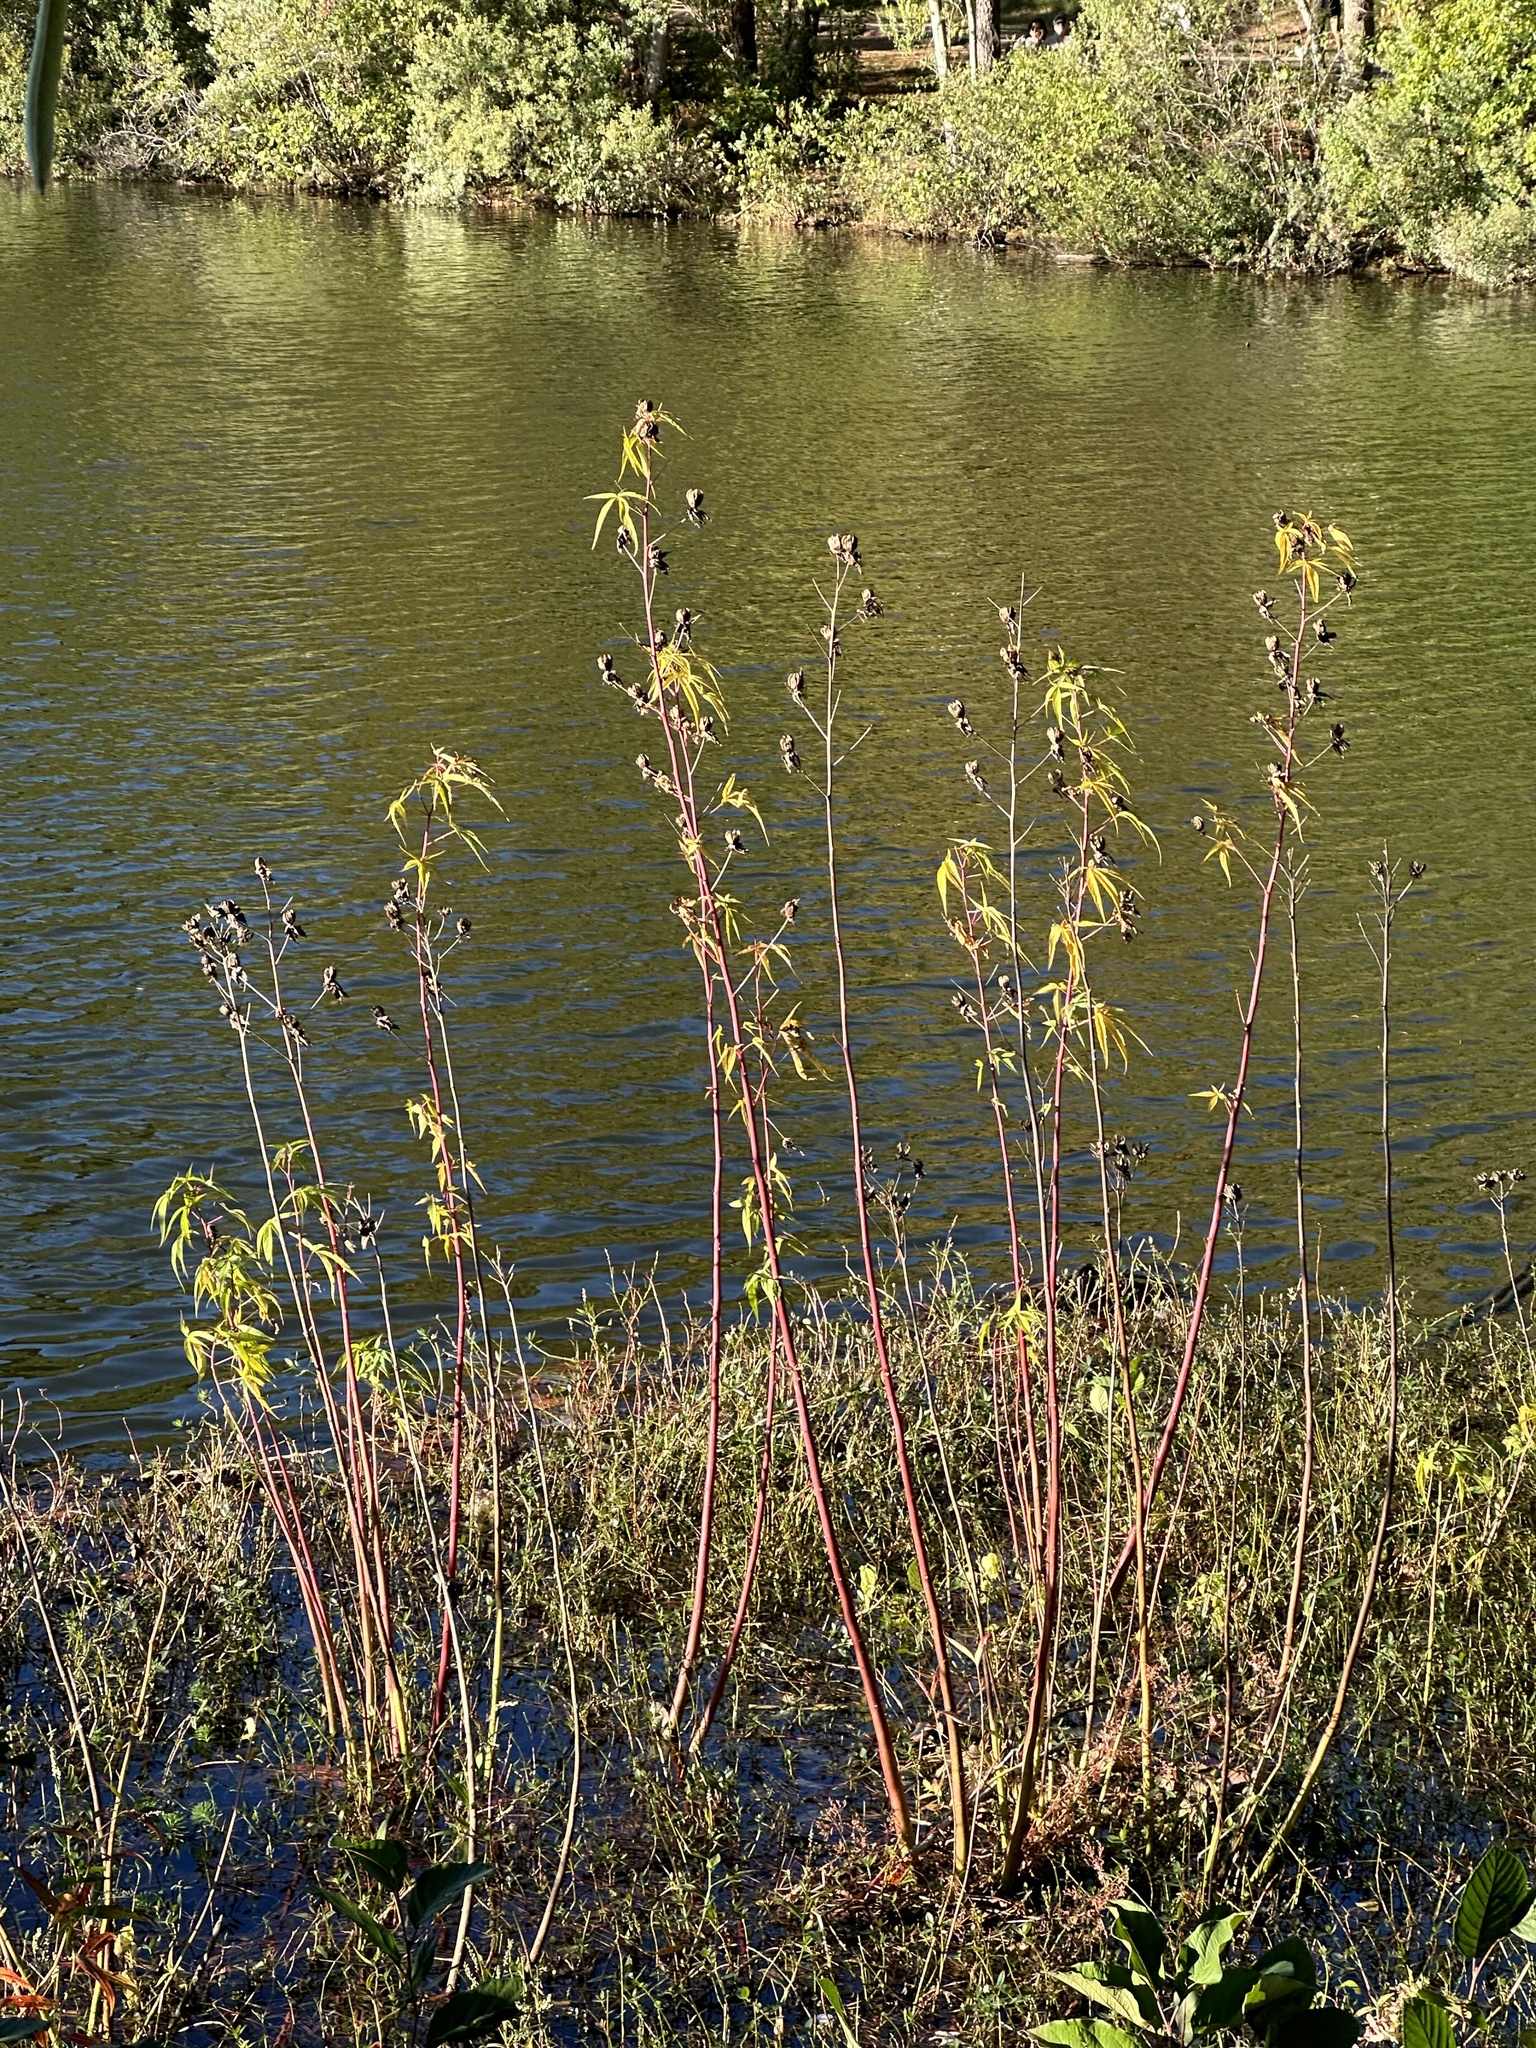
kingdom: Plantae
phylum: Tracheophyta
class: Magnoliopsida
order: Malvales
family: Malvaceae
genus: Hibiscus
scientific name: Hibiscus coccineus
